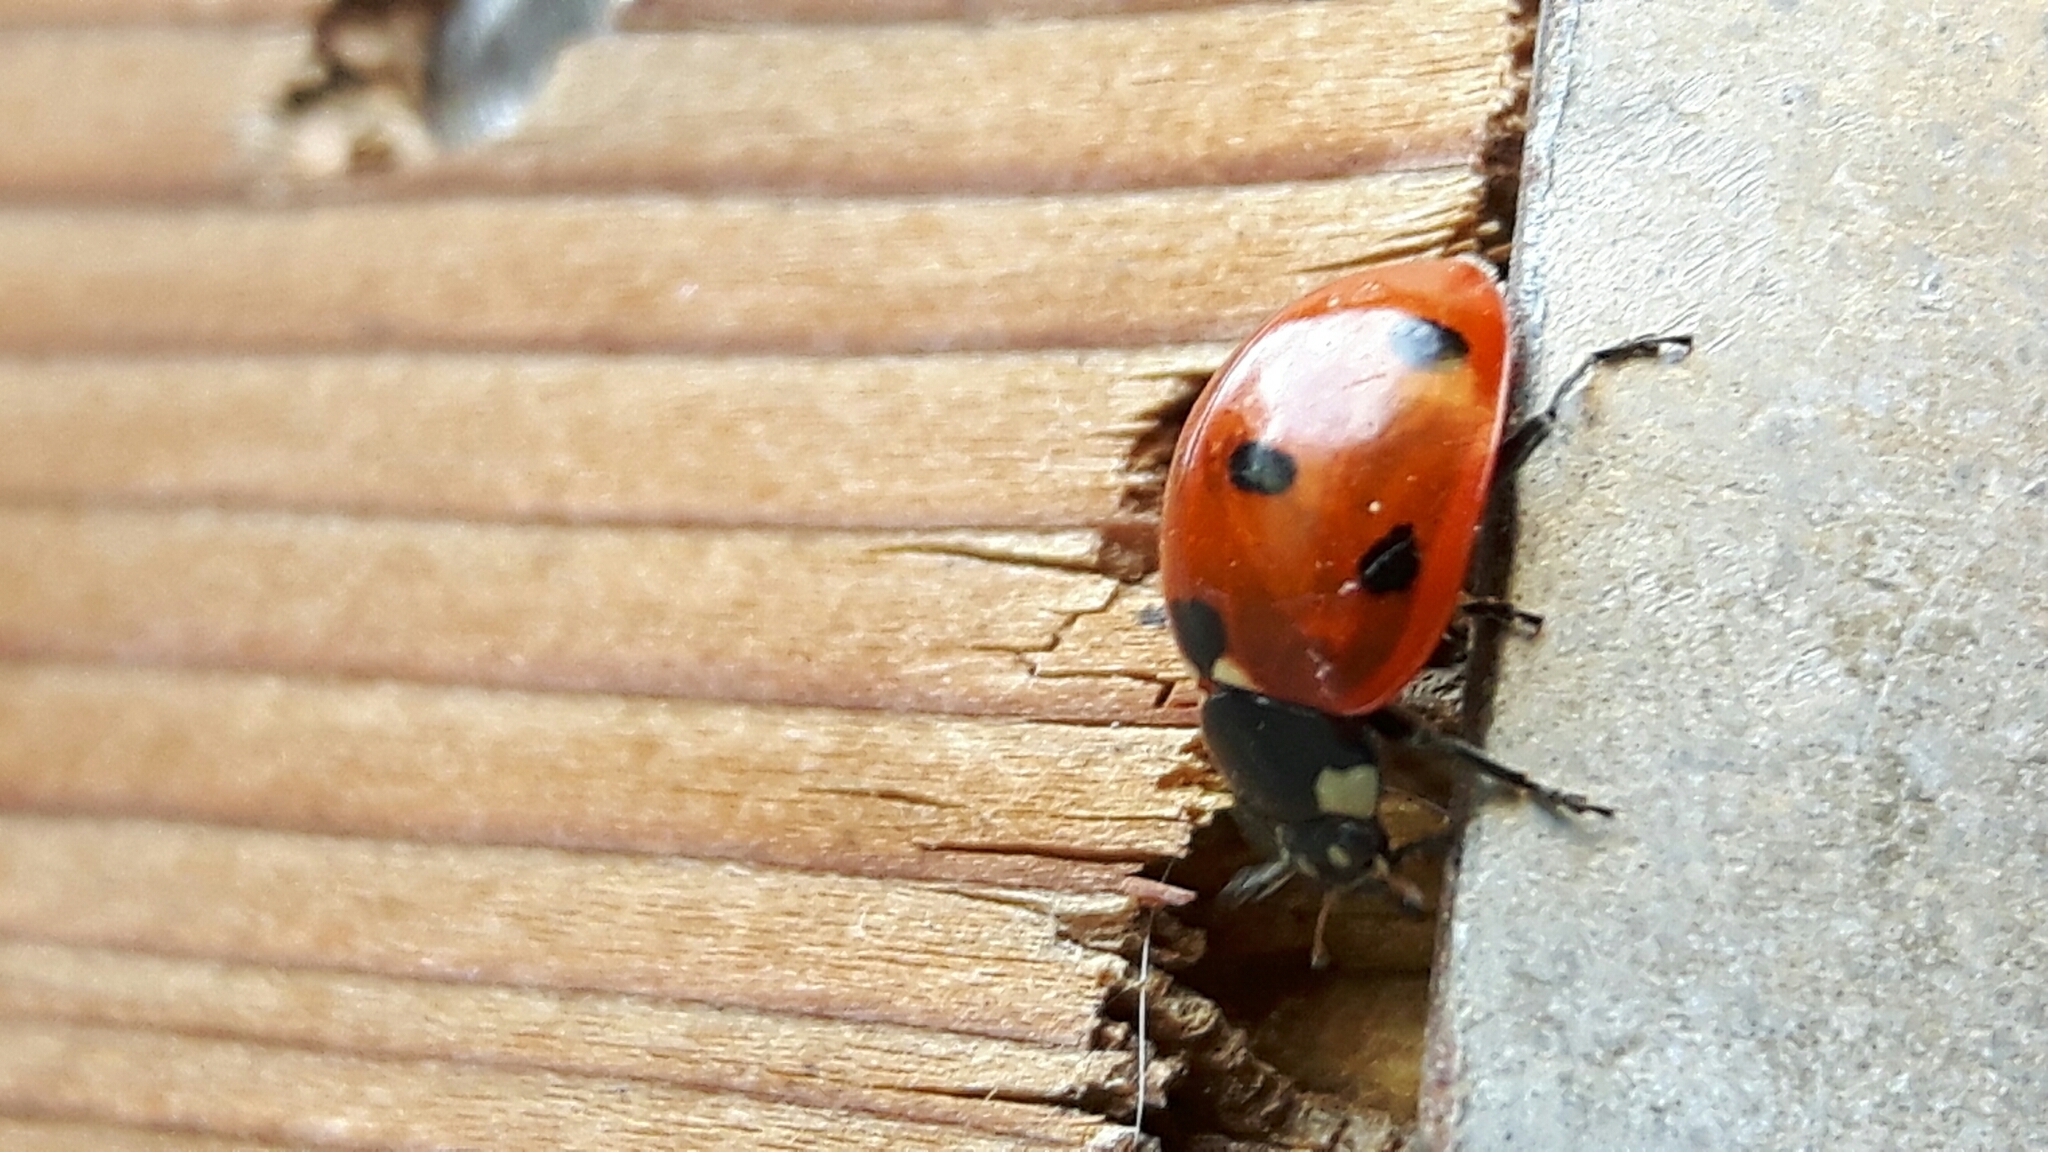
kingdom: Animalia
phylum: Arthropoda
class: Insecta
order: Coleoptera
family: Coccinellidae
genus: Coccinella
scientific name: Coccinella septempunctata
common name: Sevenspotted lady beetle
